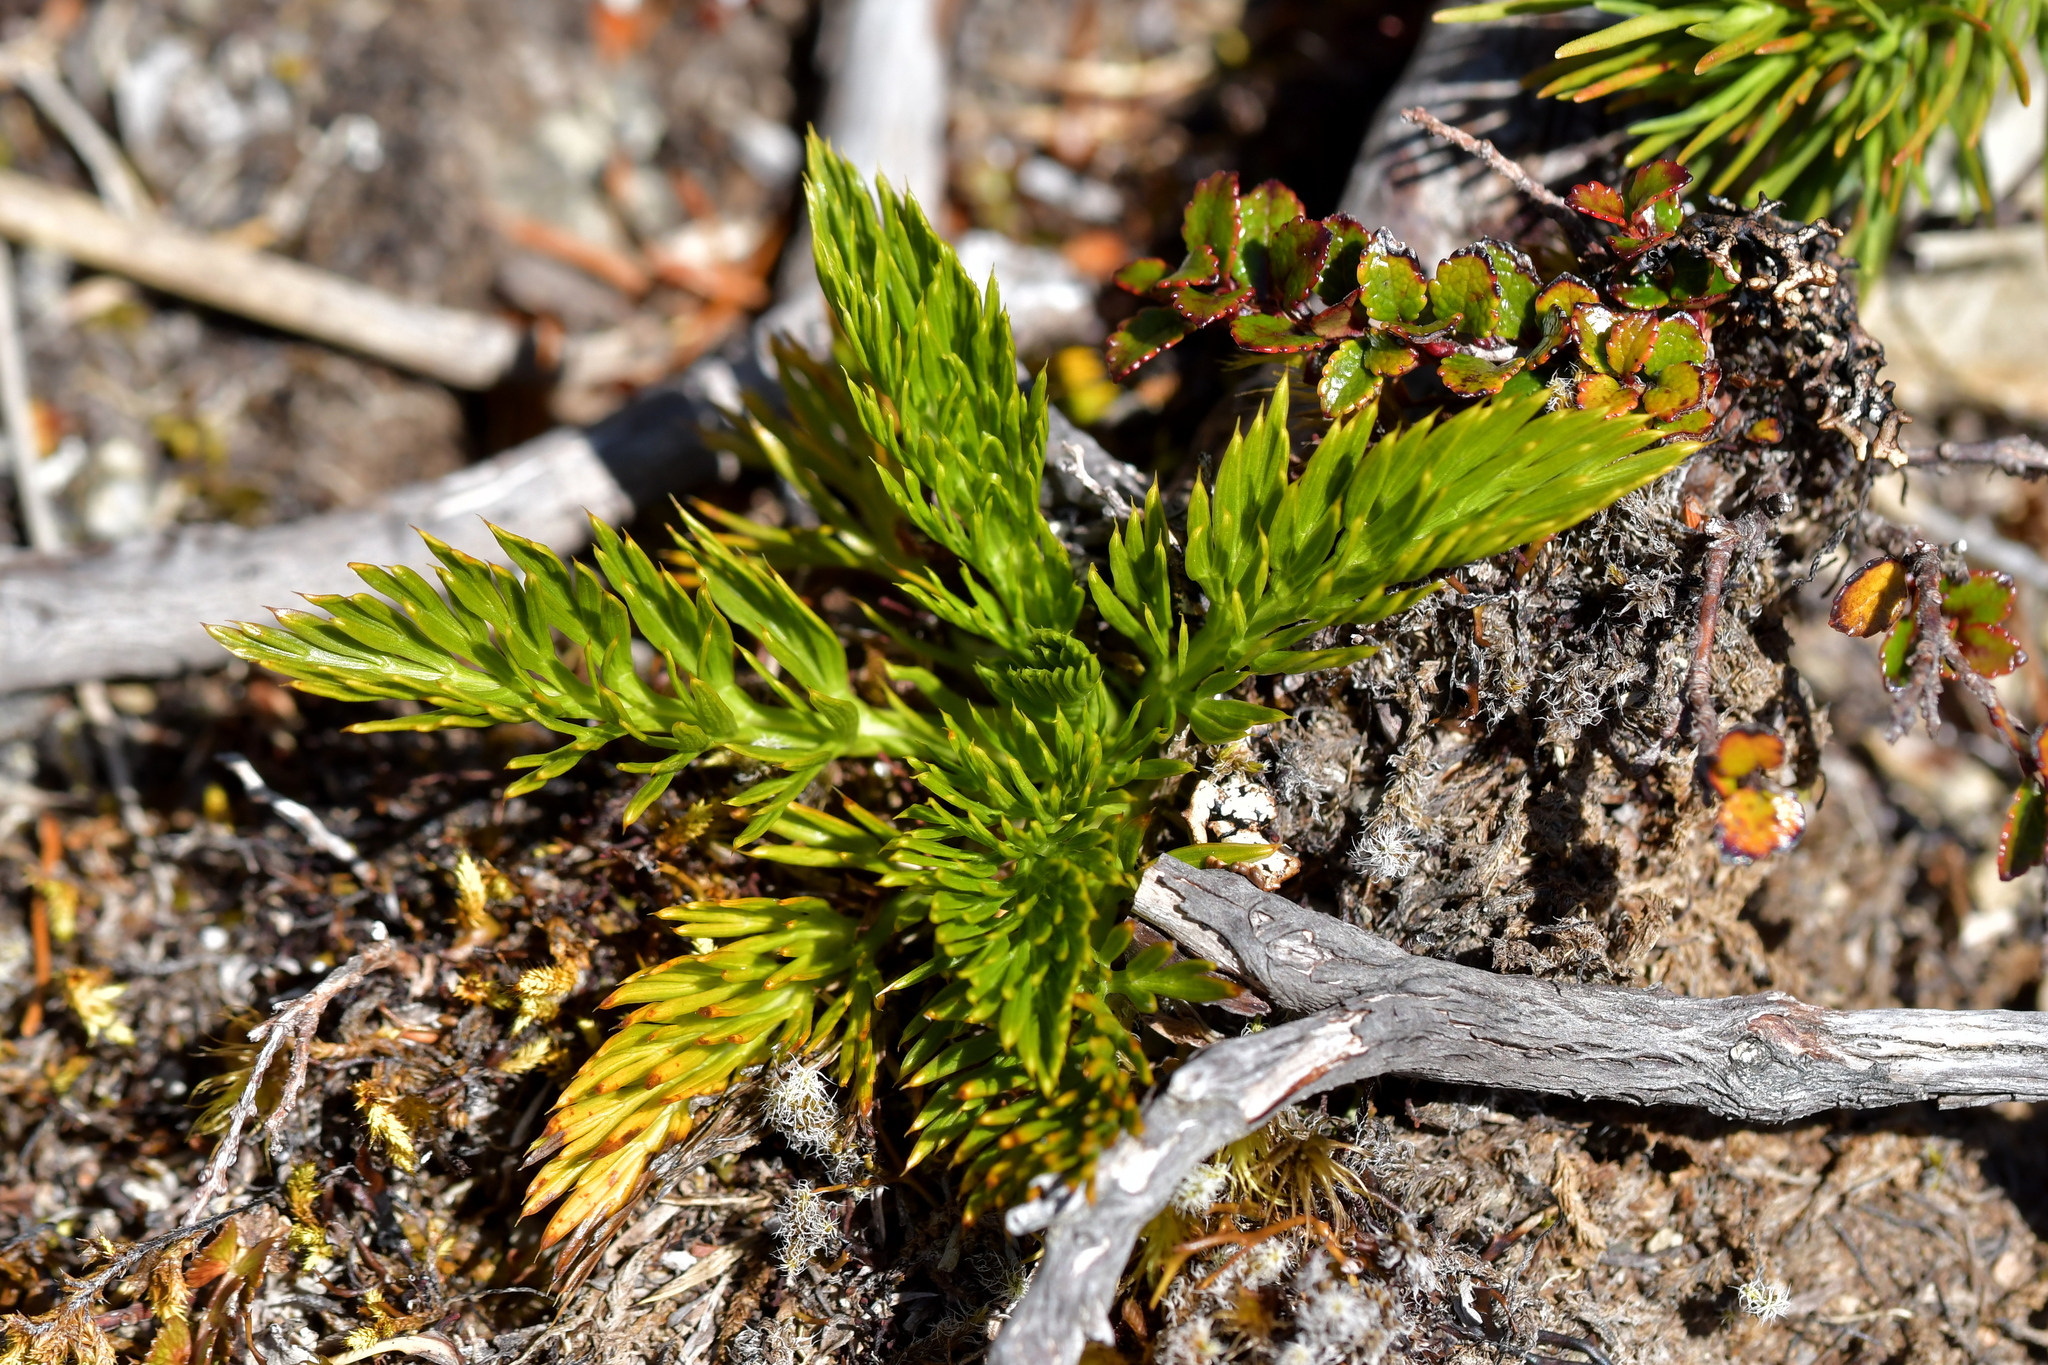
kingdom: Plantae
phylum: Tracheophyta
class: Magnoliopsida
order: Apiales
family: Apiaceae
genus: Aciphylla
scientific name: Aciphylla dissecta
